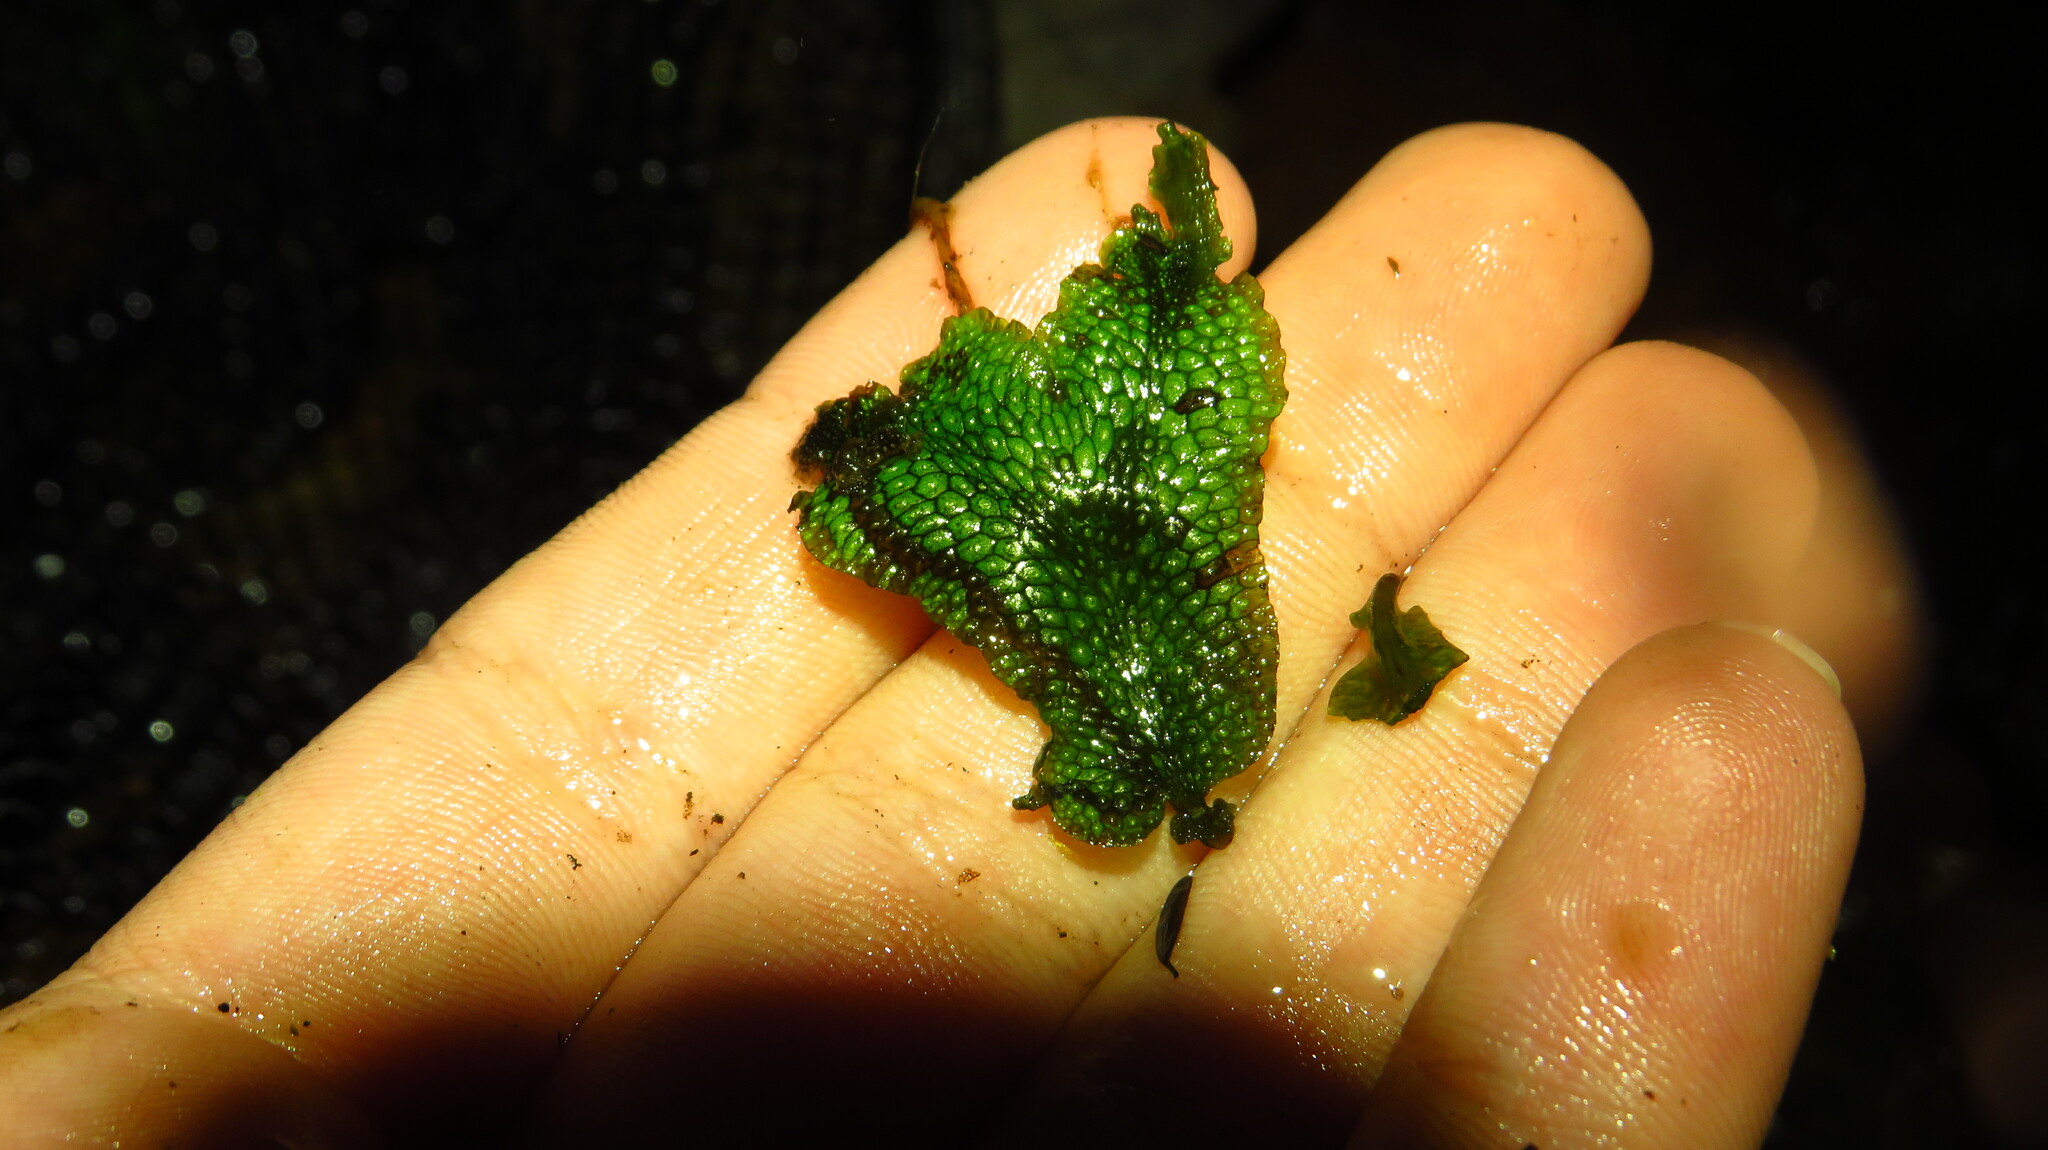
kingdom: Plantae
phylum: Marchantiophyta
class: Marchantiopsida
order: Marchantiales
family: Conocephalaceae
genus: Conocephalum
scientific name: Conocephalum salebrosum
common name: Cat-tongue liverwort
